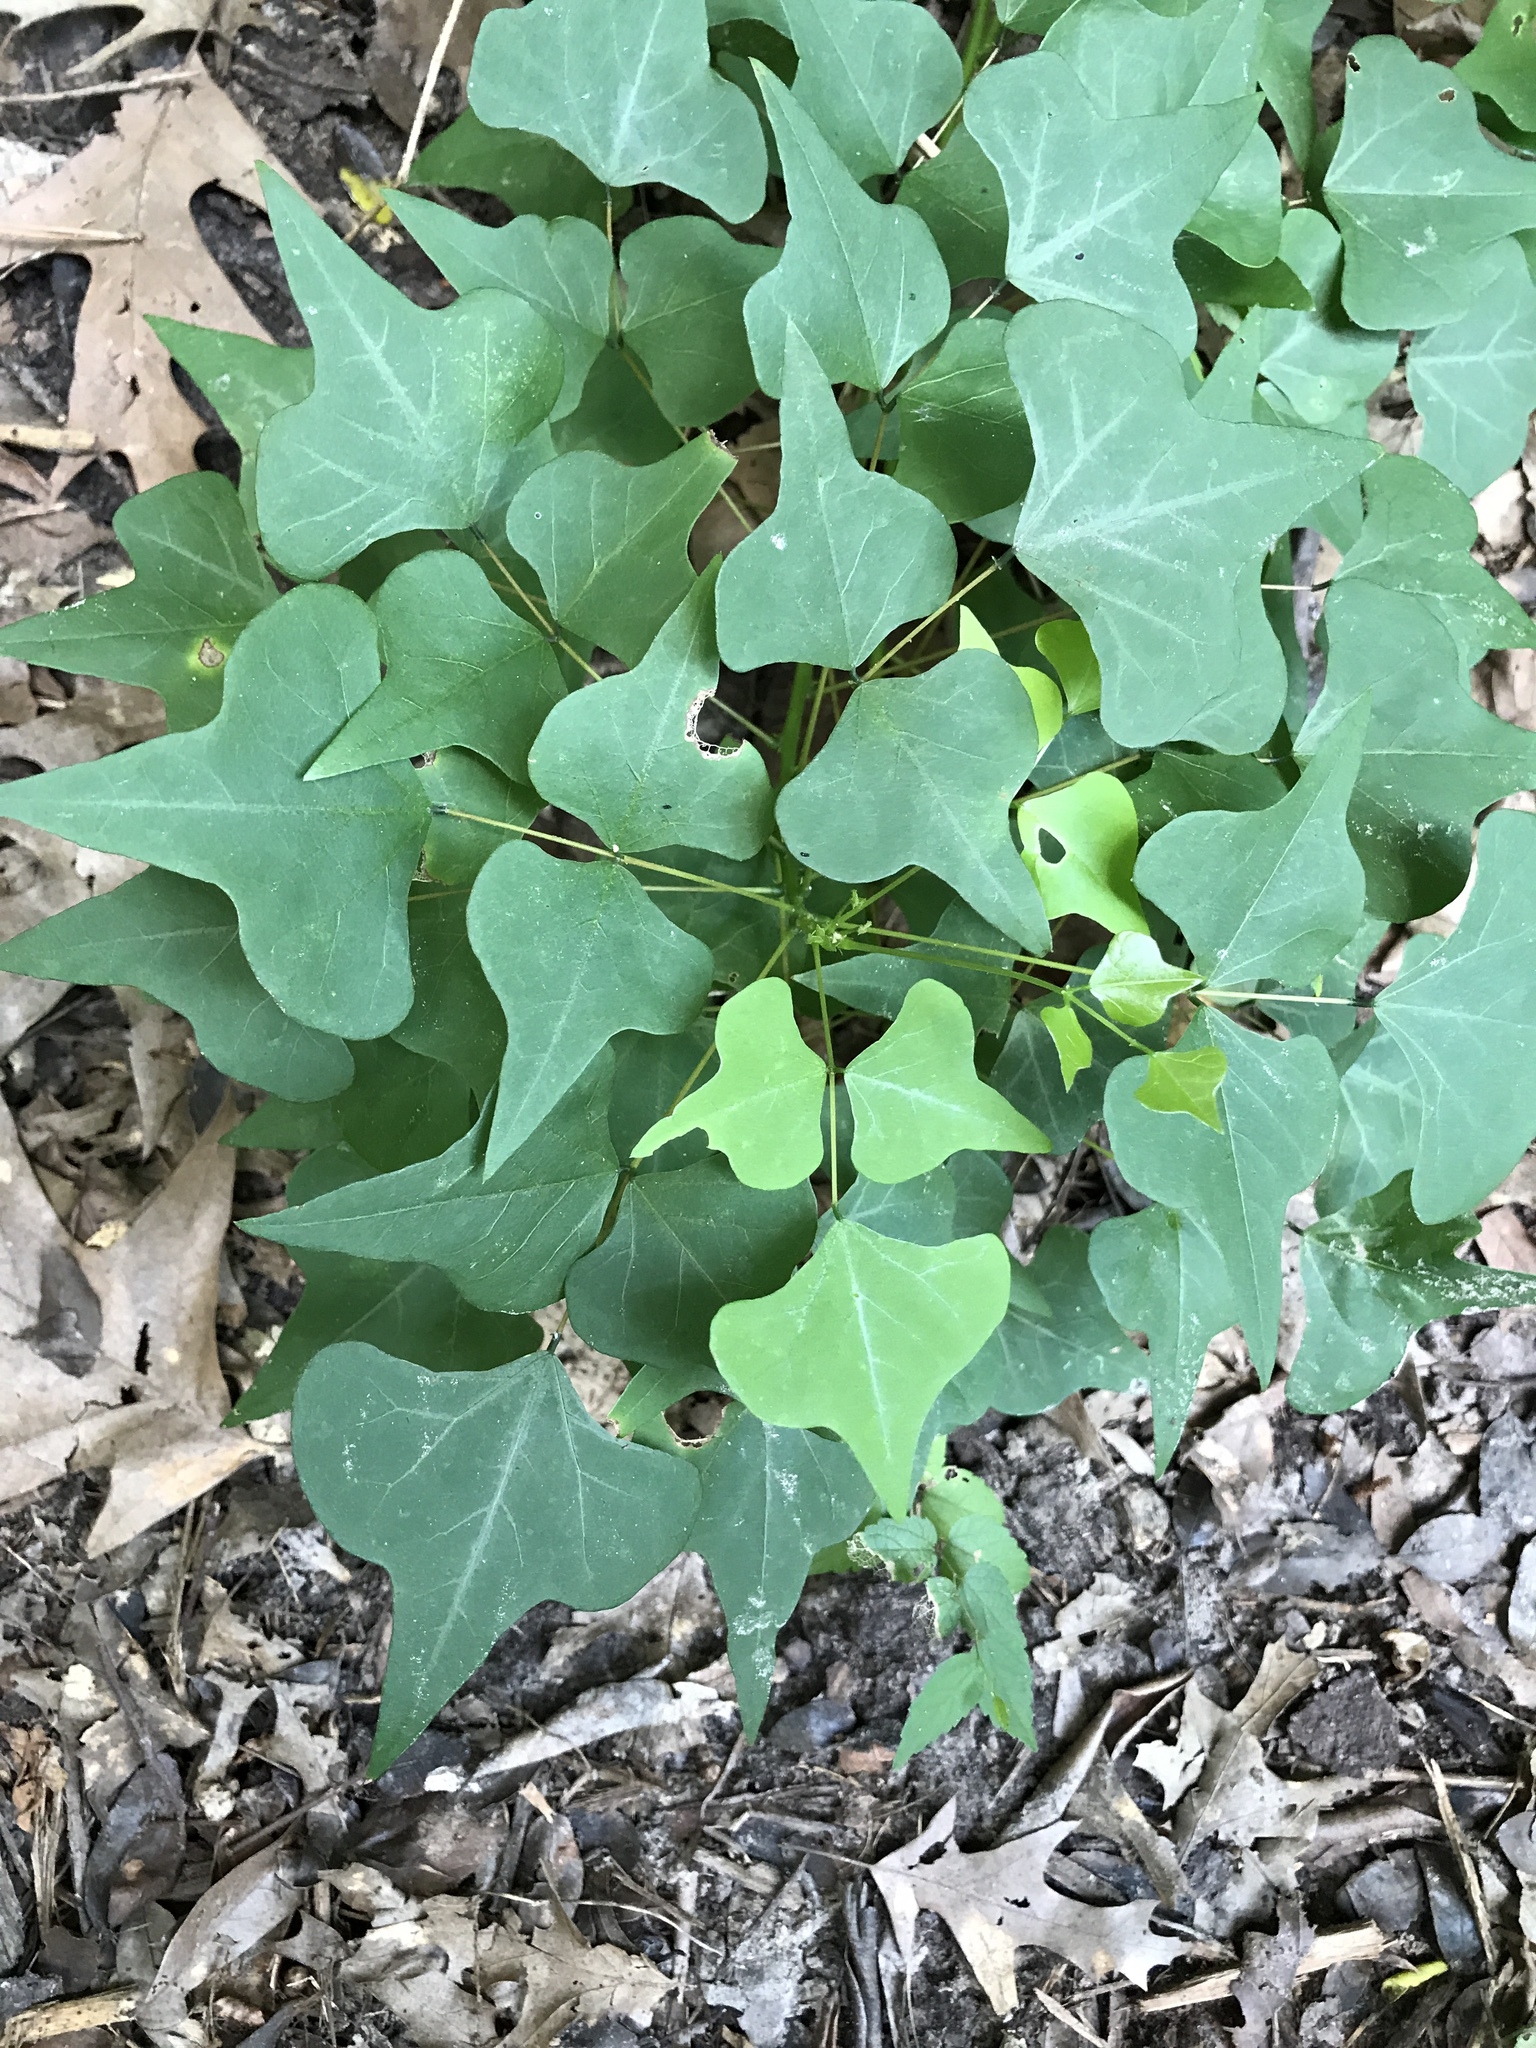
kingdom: Plantae
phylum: Tracheophyta
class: Magnoliopsida
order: Fabales
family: Fabaceae
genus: Erythrina
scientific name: Erythrina herbacea
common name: Coral-bean
